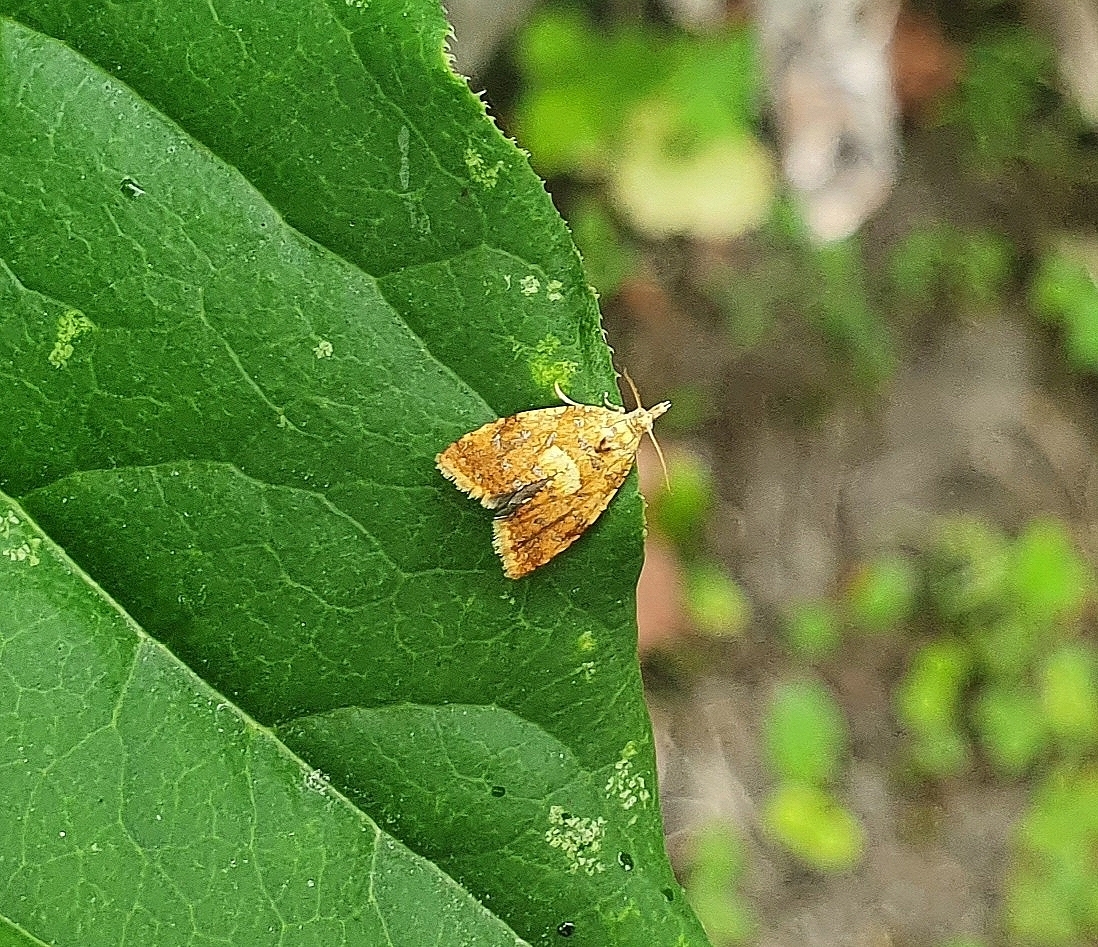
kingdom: Animalia
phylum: Arthropoda
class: Insecta
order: Lepidoptera
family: Tortricidae
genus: Pseudargyrotoza
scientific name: Pseudargyrotoza conwagana
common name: Yellow-spot twist
